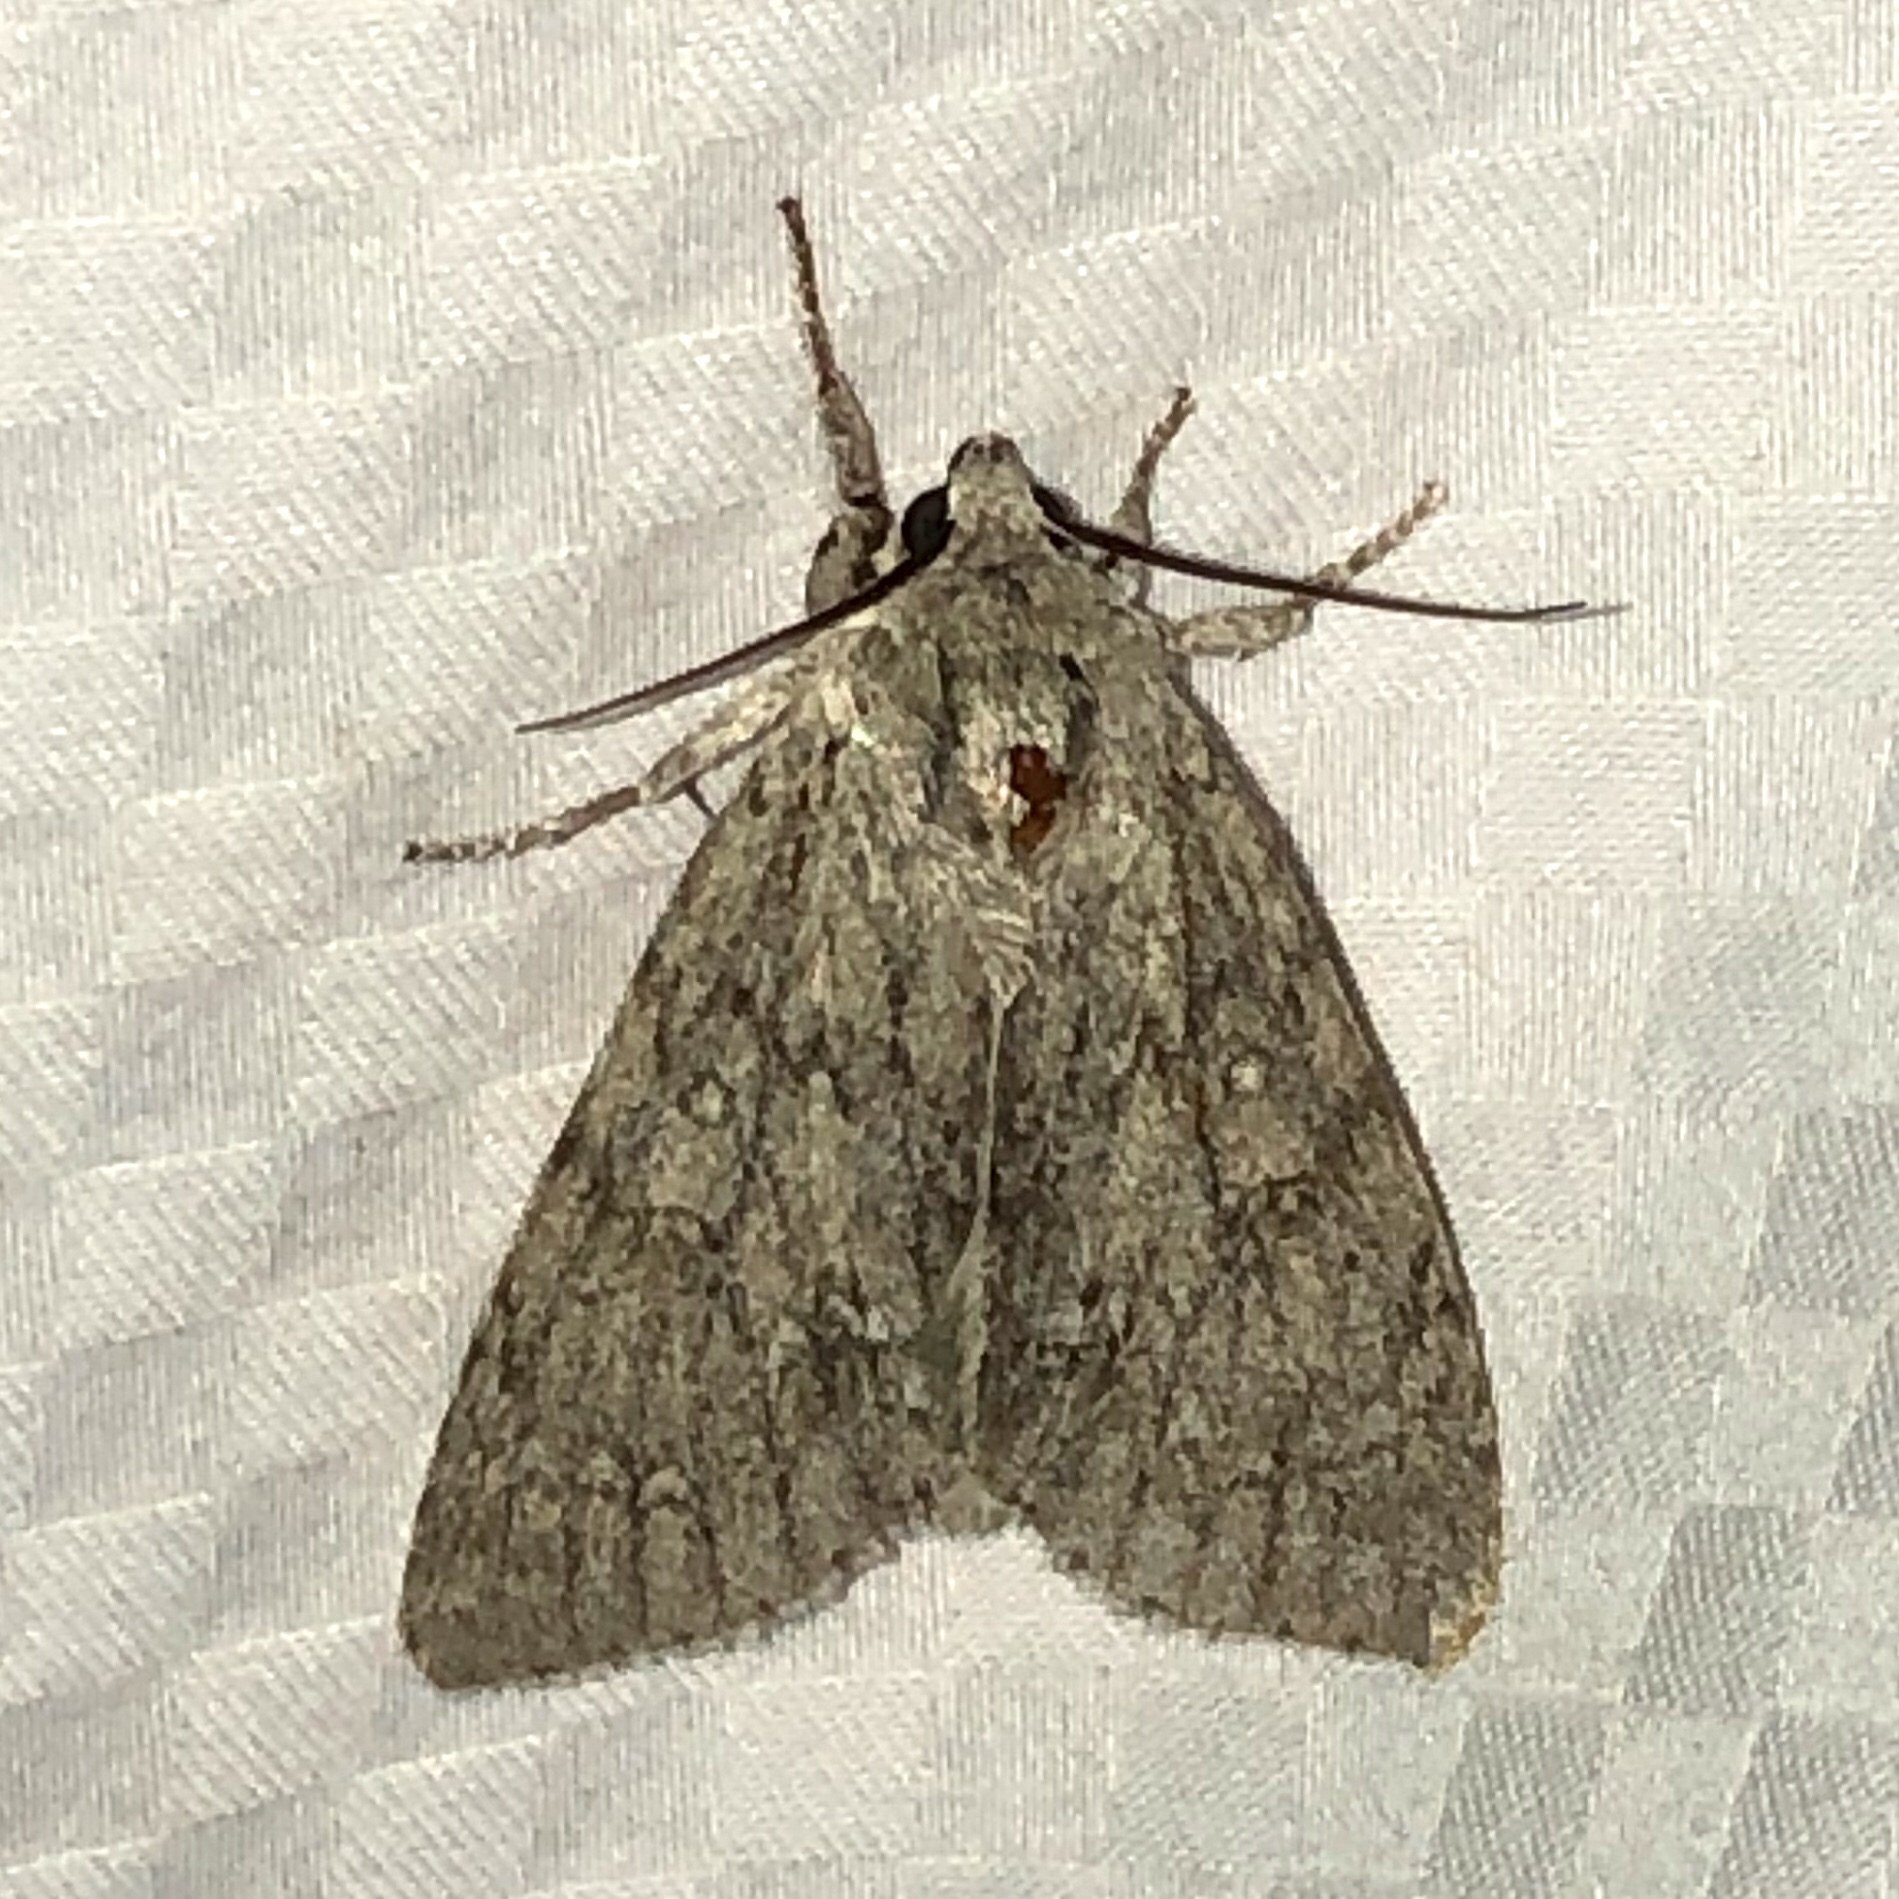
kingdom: Animalia
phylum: Arthropoda
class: Insecta
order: Lepidoptera
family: Noctuidae
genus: Acronicta
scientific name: Acronicta americana
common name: American dagger
